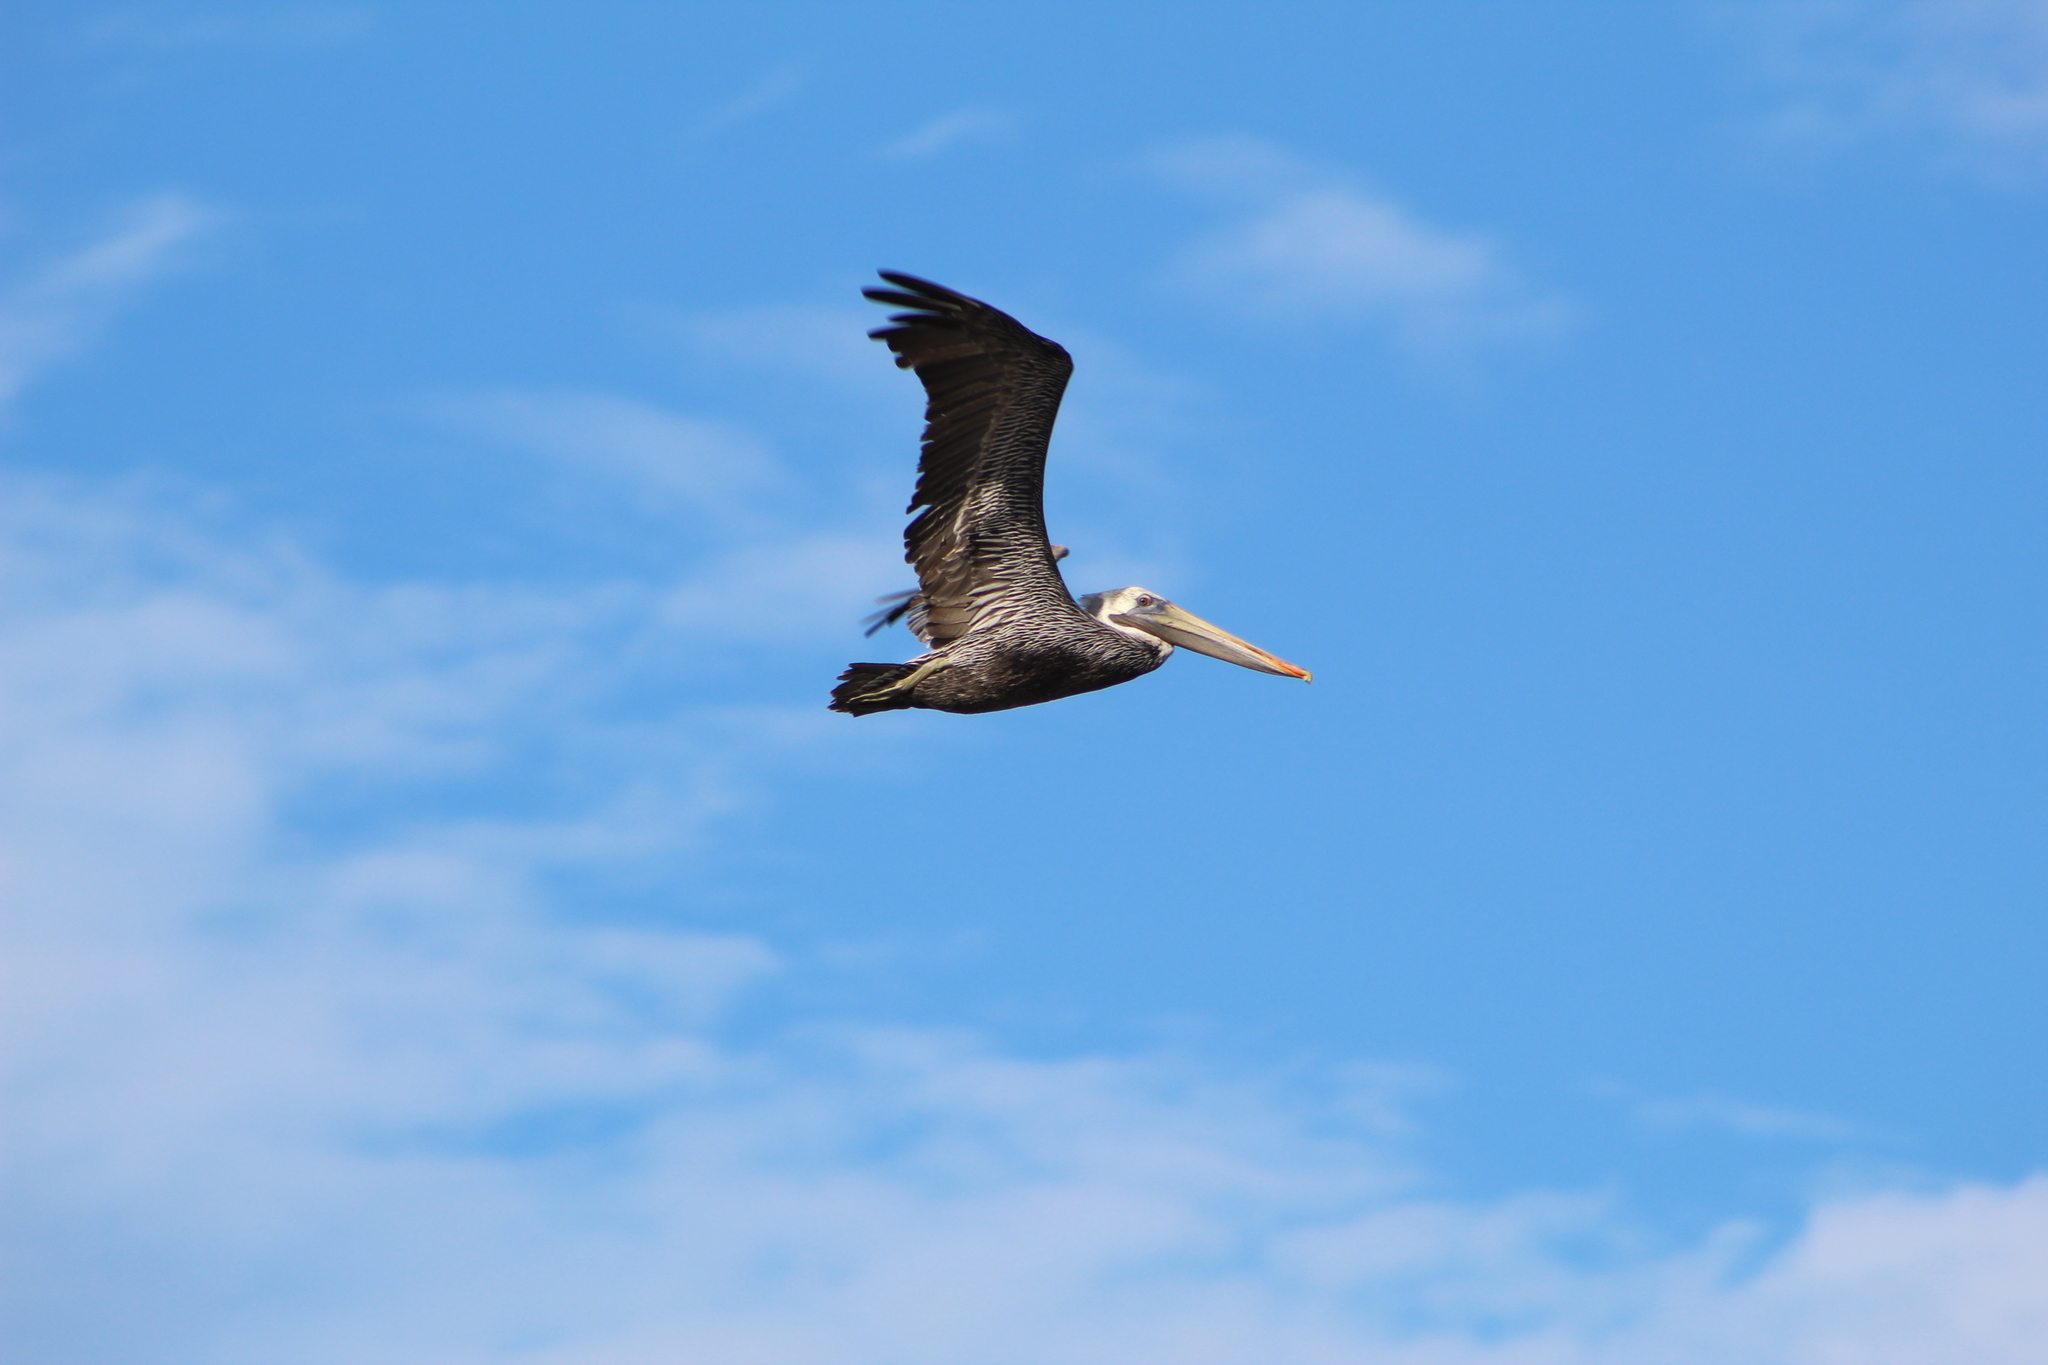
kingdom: Animalia
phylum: Chordata
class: Aves
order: Pelecaniformes
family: Pelecanidae
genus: Pelecanus
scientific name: Pelecanus occidentalis
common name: Brown pelican
